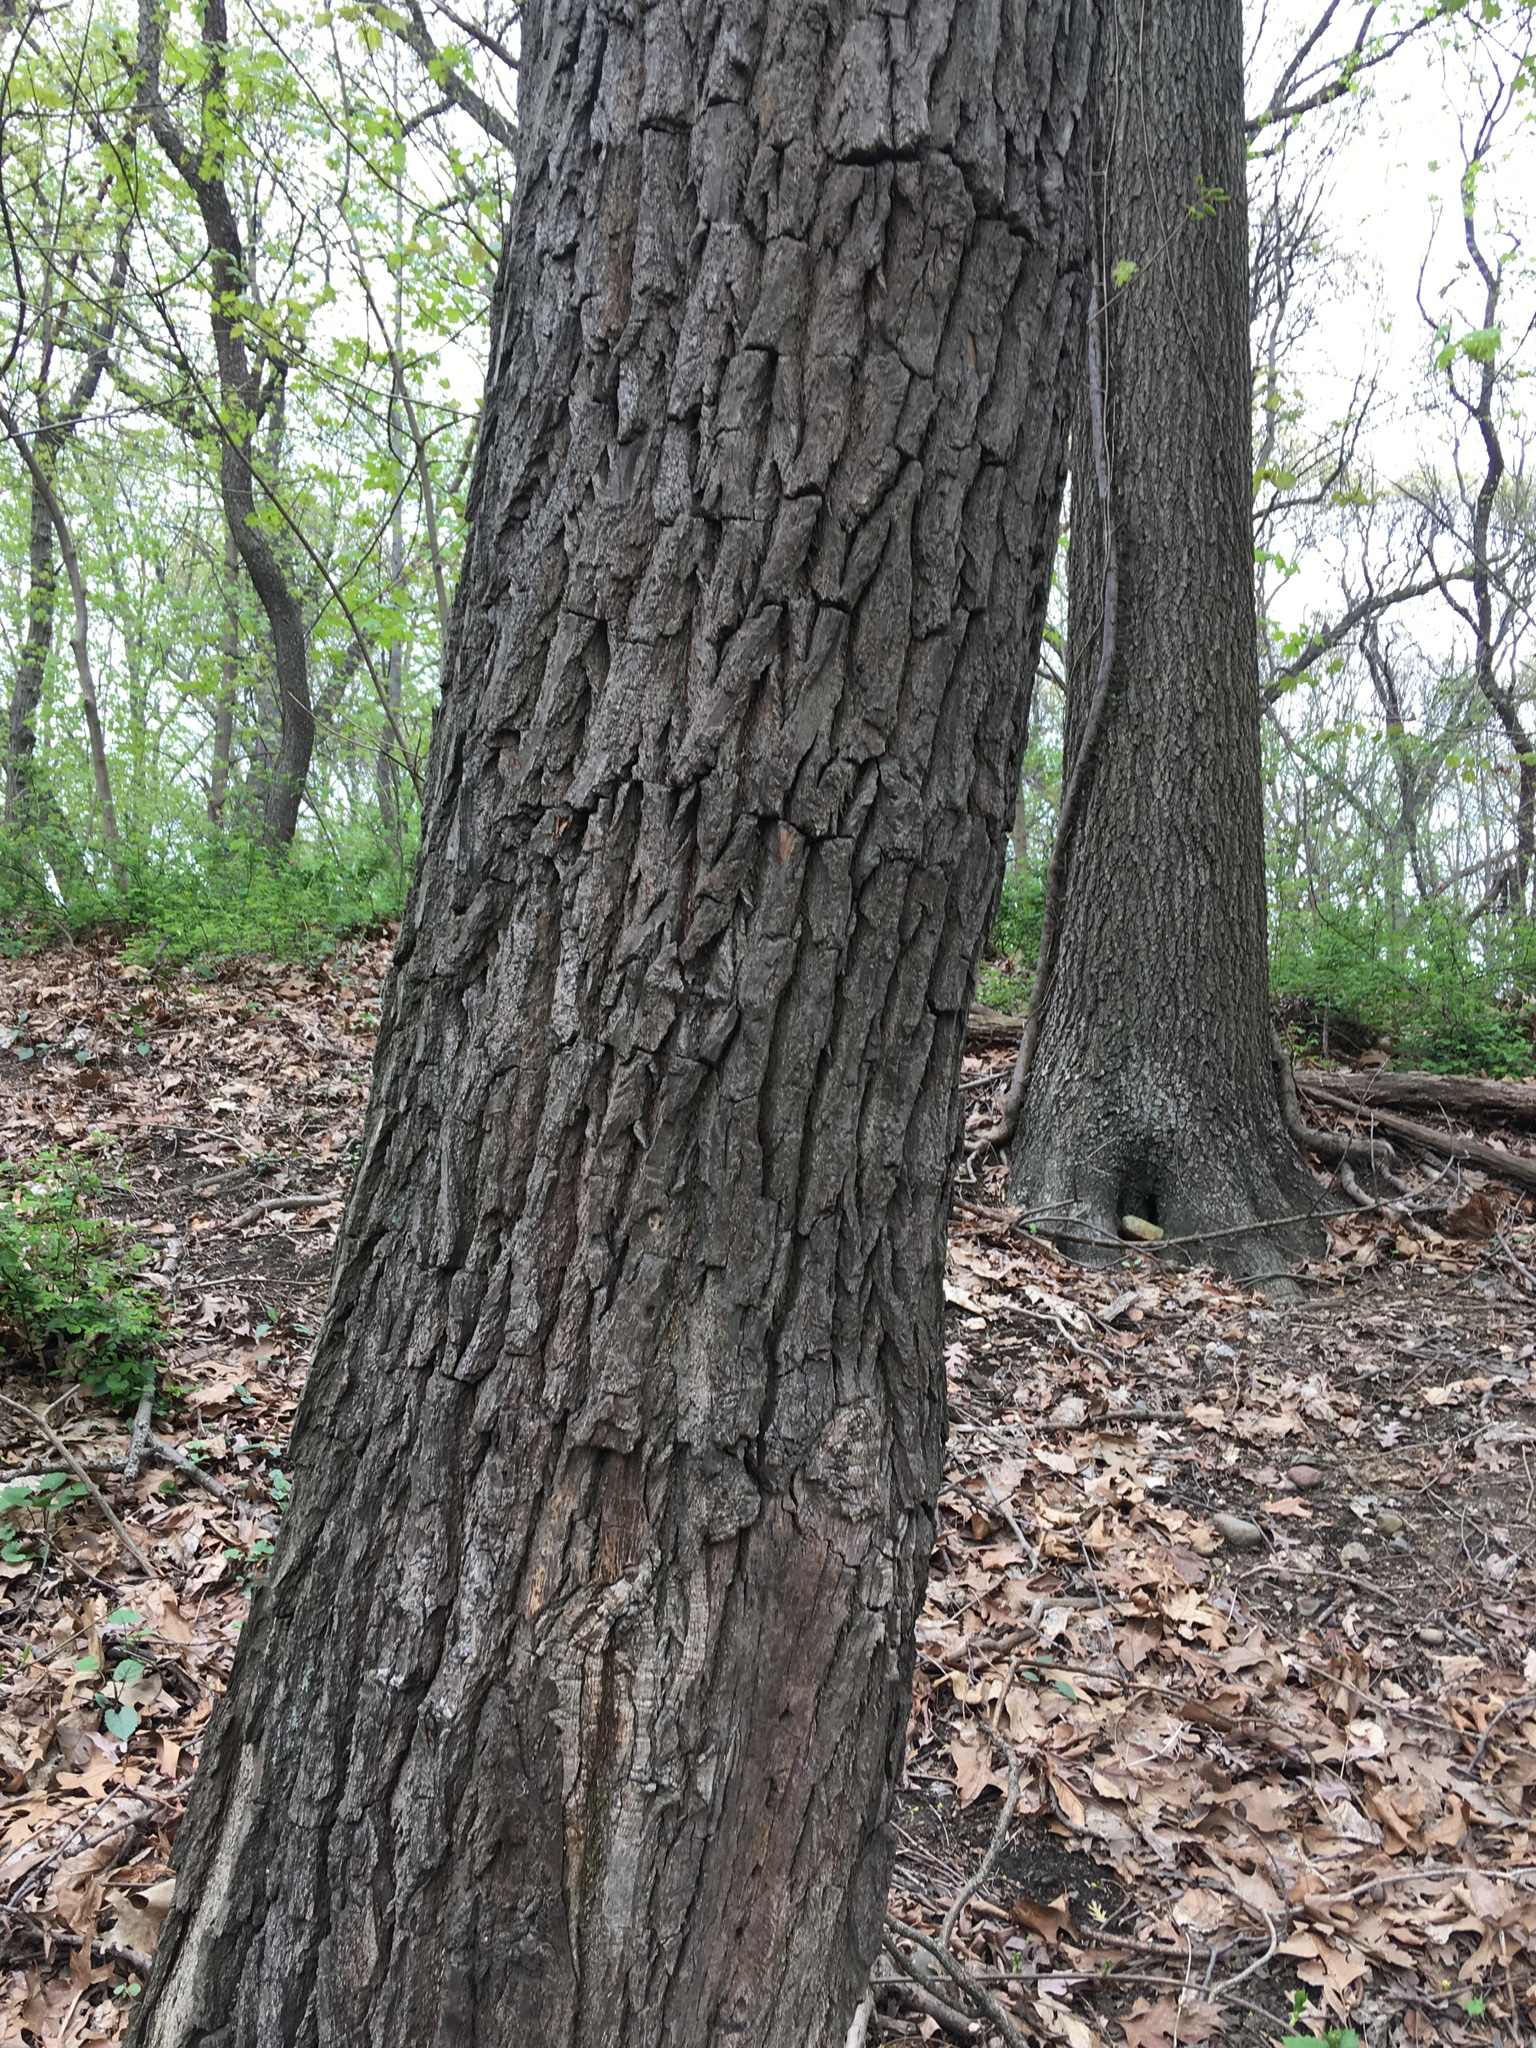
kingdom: Plantae
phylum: Tracheophyta
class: Magnoliopsida
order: Laurales
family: Lauraceae
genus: Sassafras
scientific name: Sassafras albidum
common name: Sassafras
